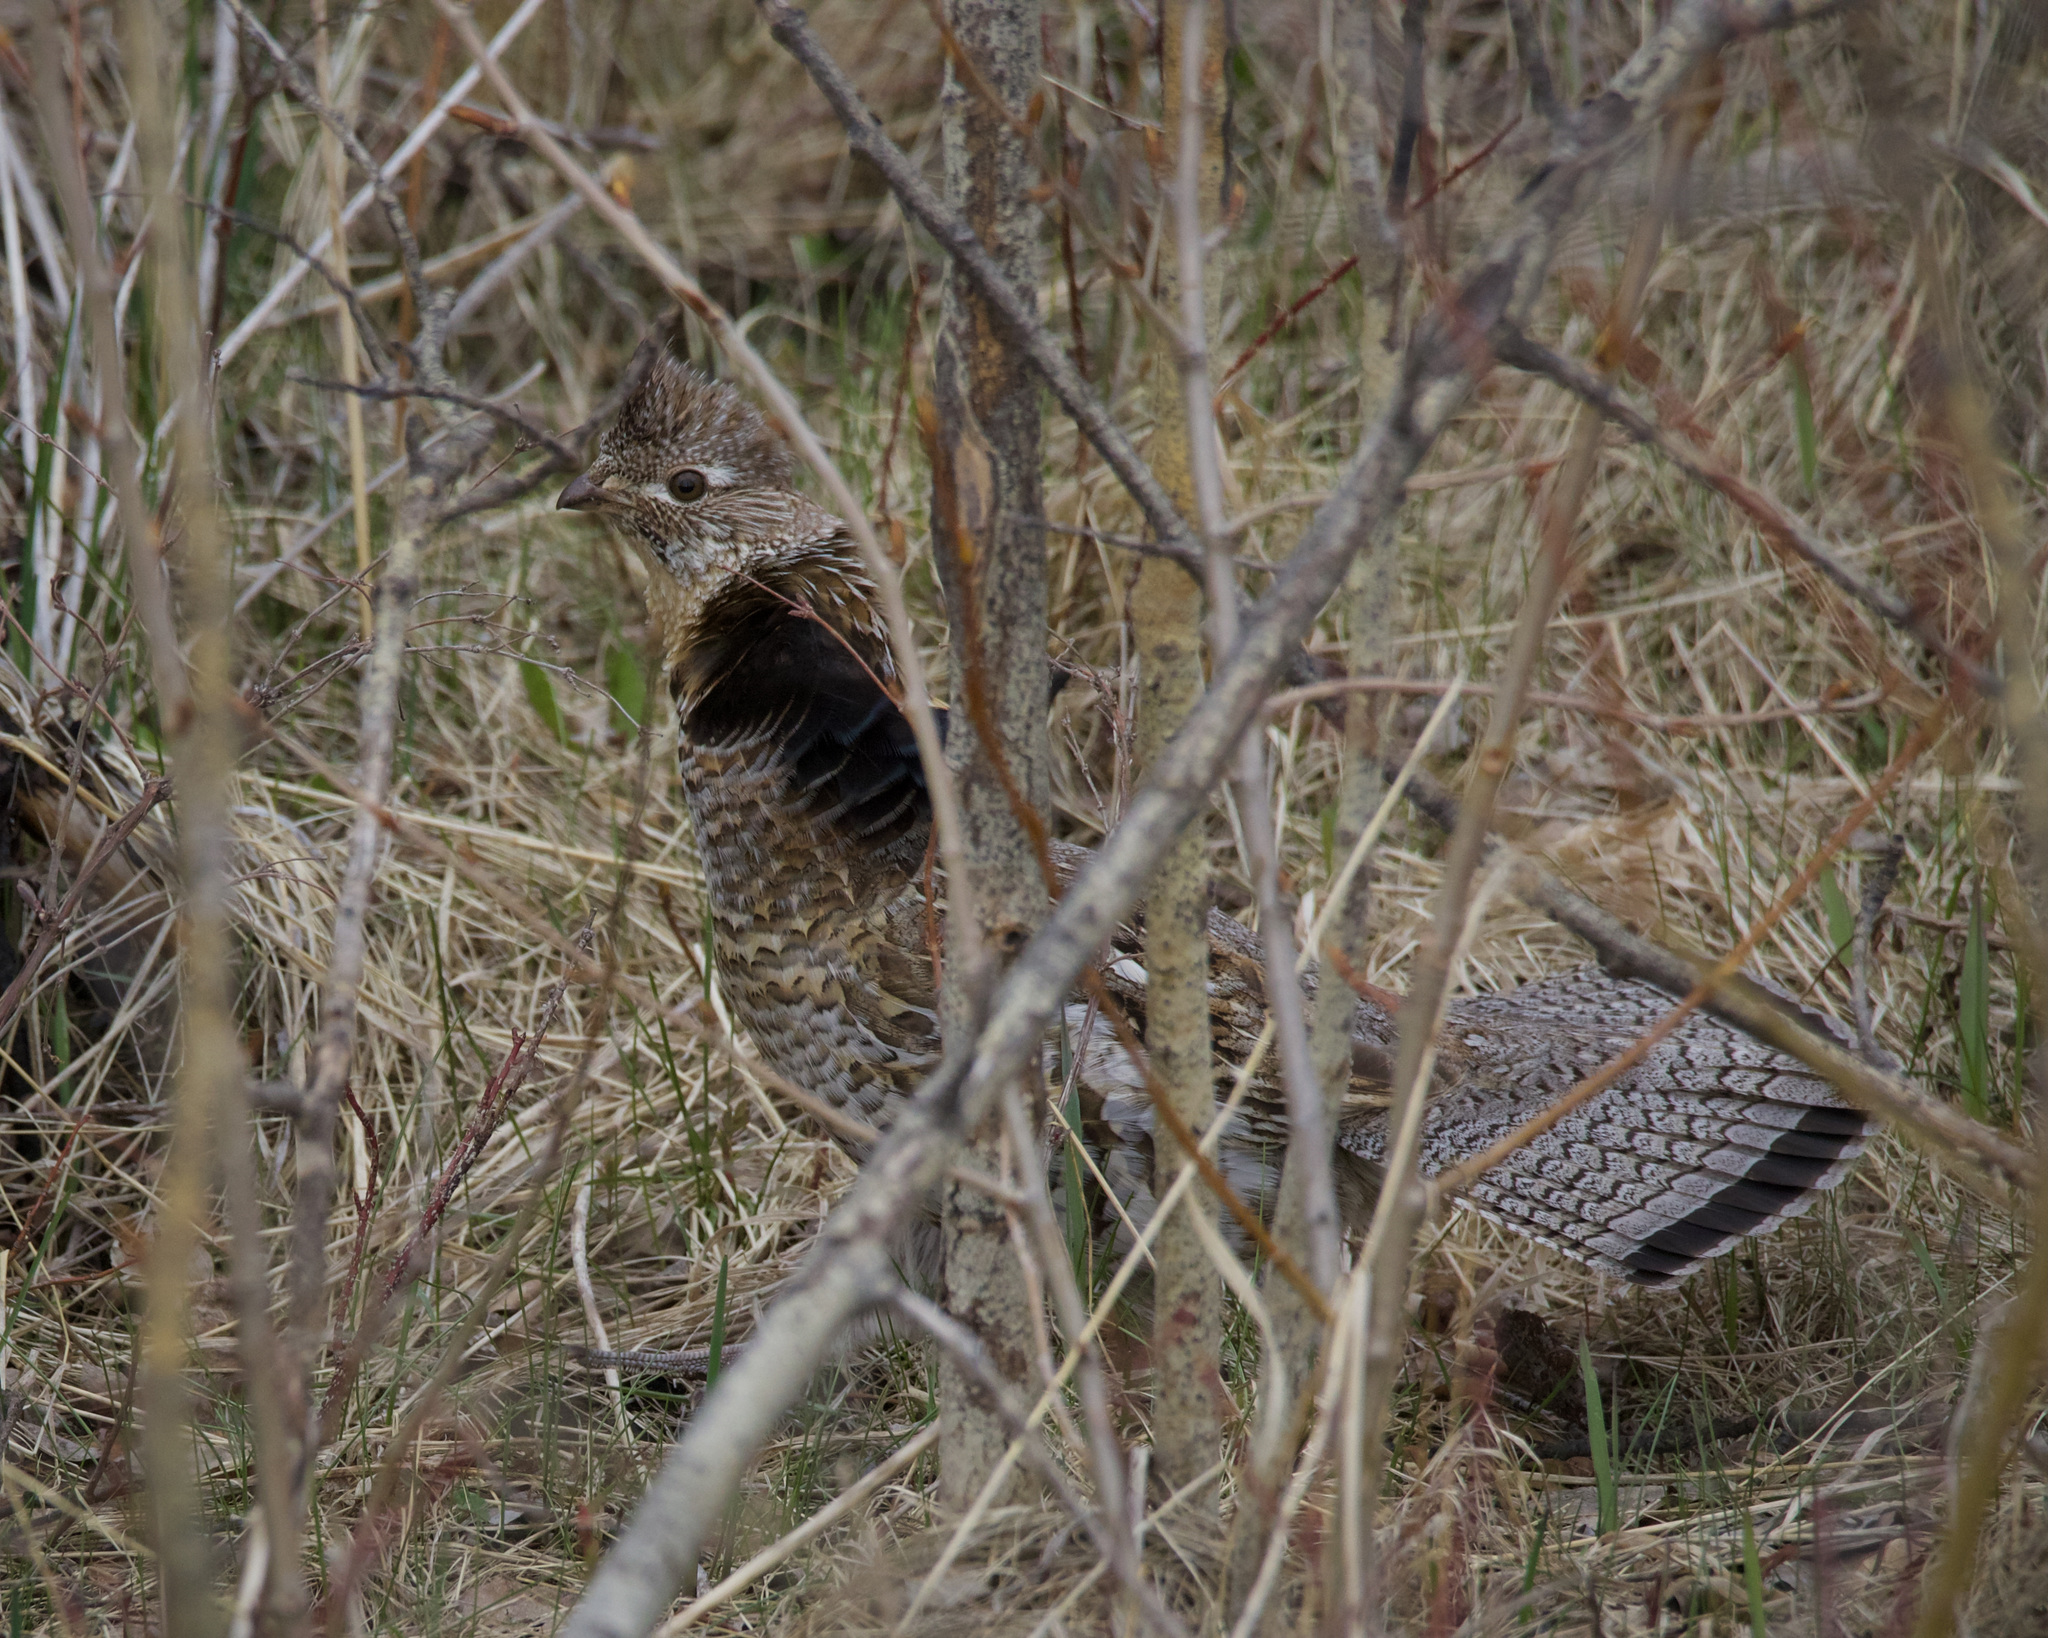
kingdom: Animalia
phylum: Chordata
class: Aves
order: Galliformes
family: Phasianidae
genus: Bonasa
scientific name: Bonasa umbellus
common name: Ruffed grouse
